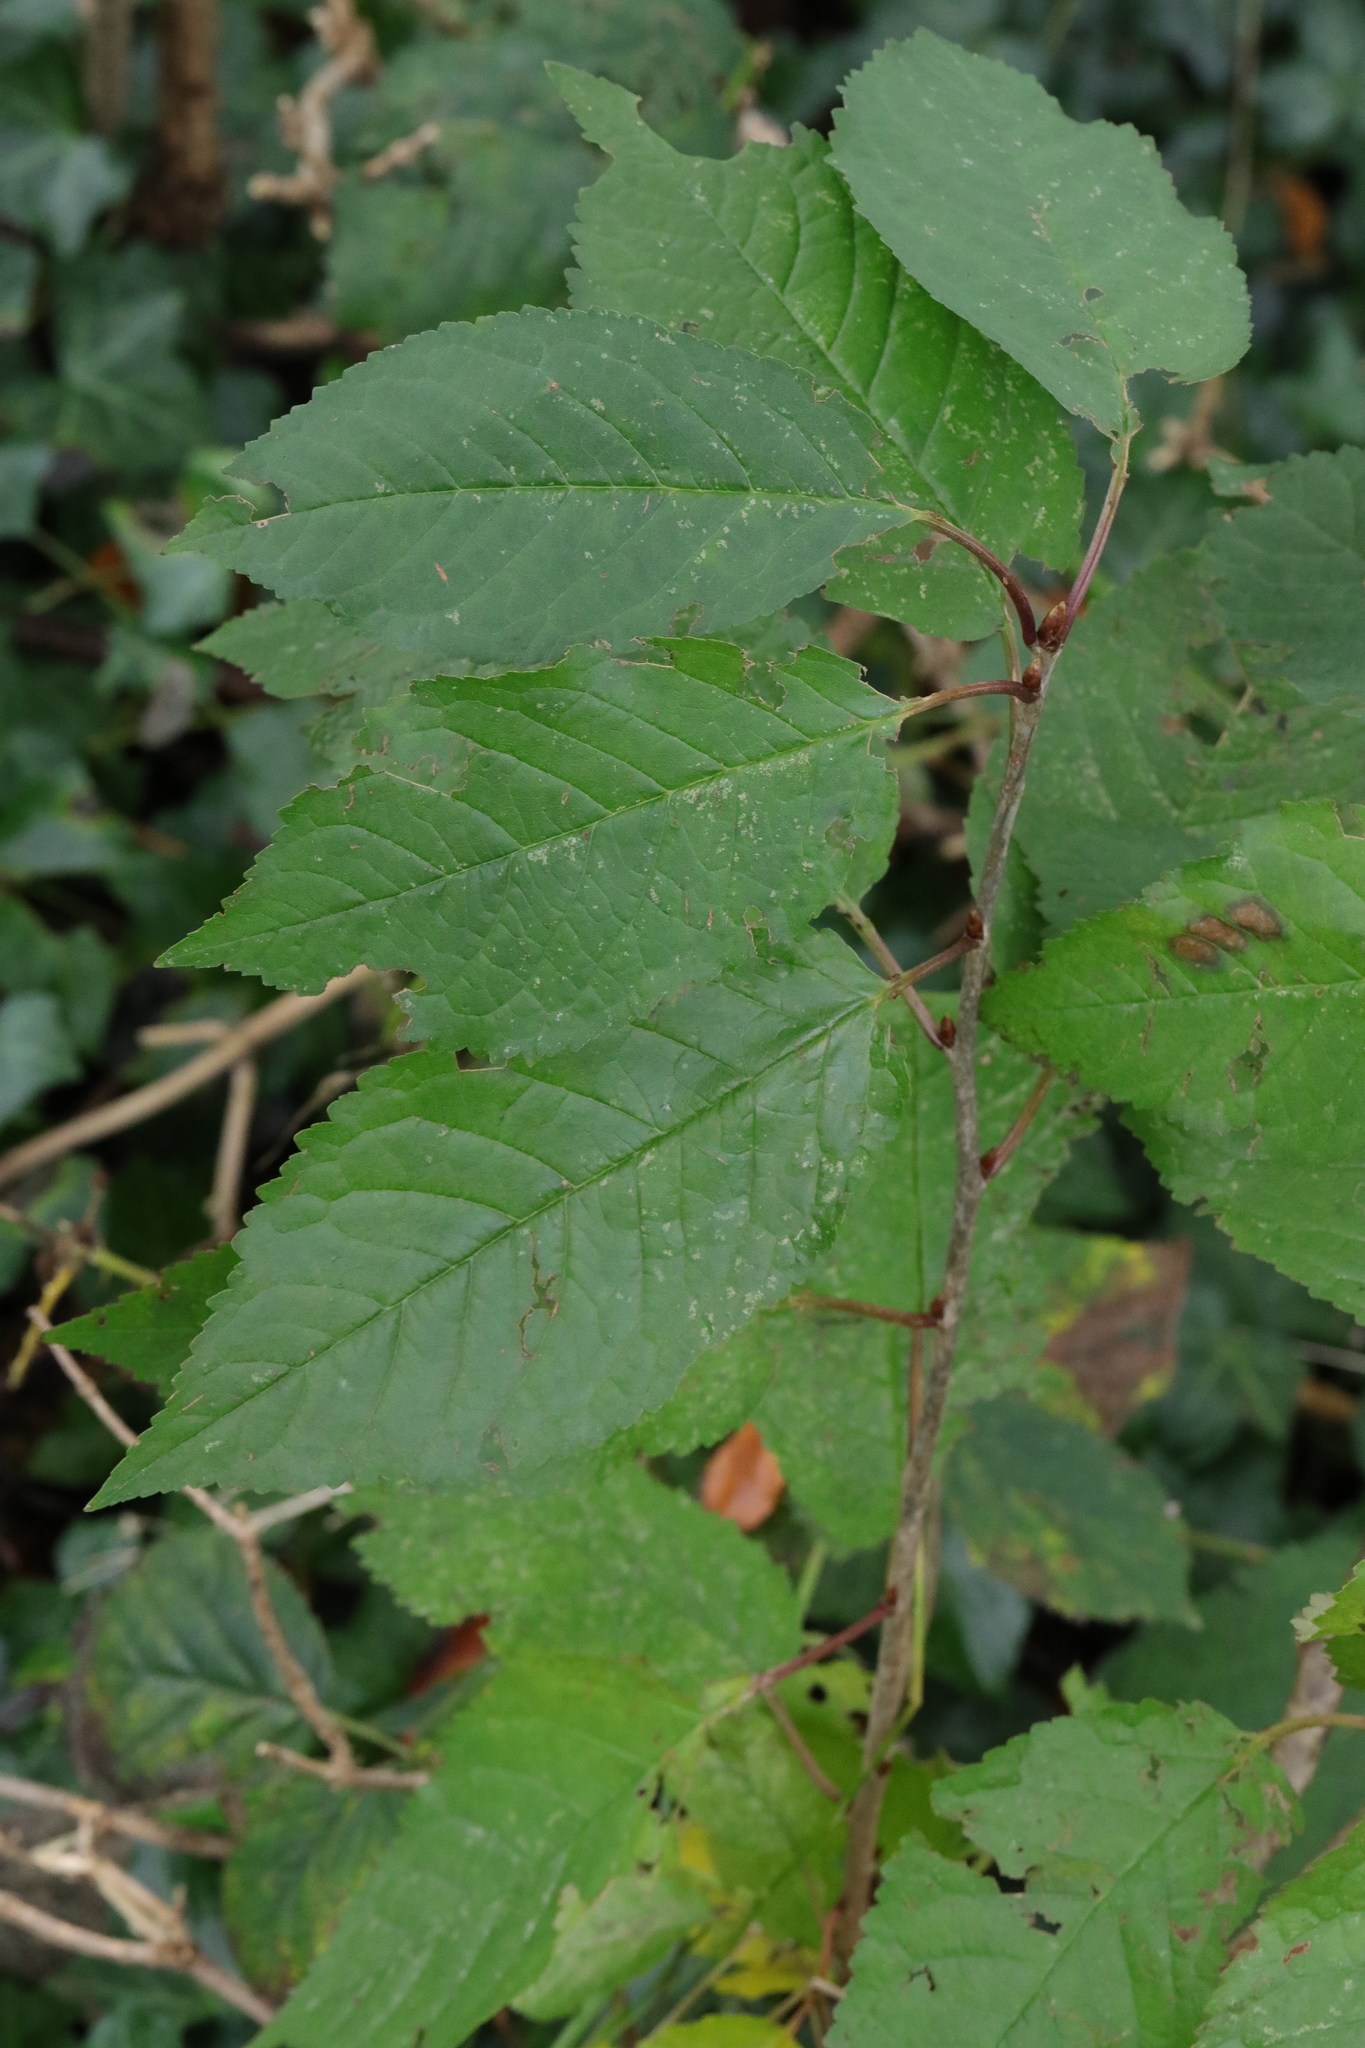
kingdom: Plantae
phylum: Tracheophyta
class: Magnoliopsida
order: Rosales
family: Rosaceae
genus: Prunus
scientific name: Prunus avium
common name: Sweet cherry
